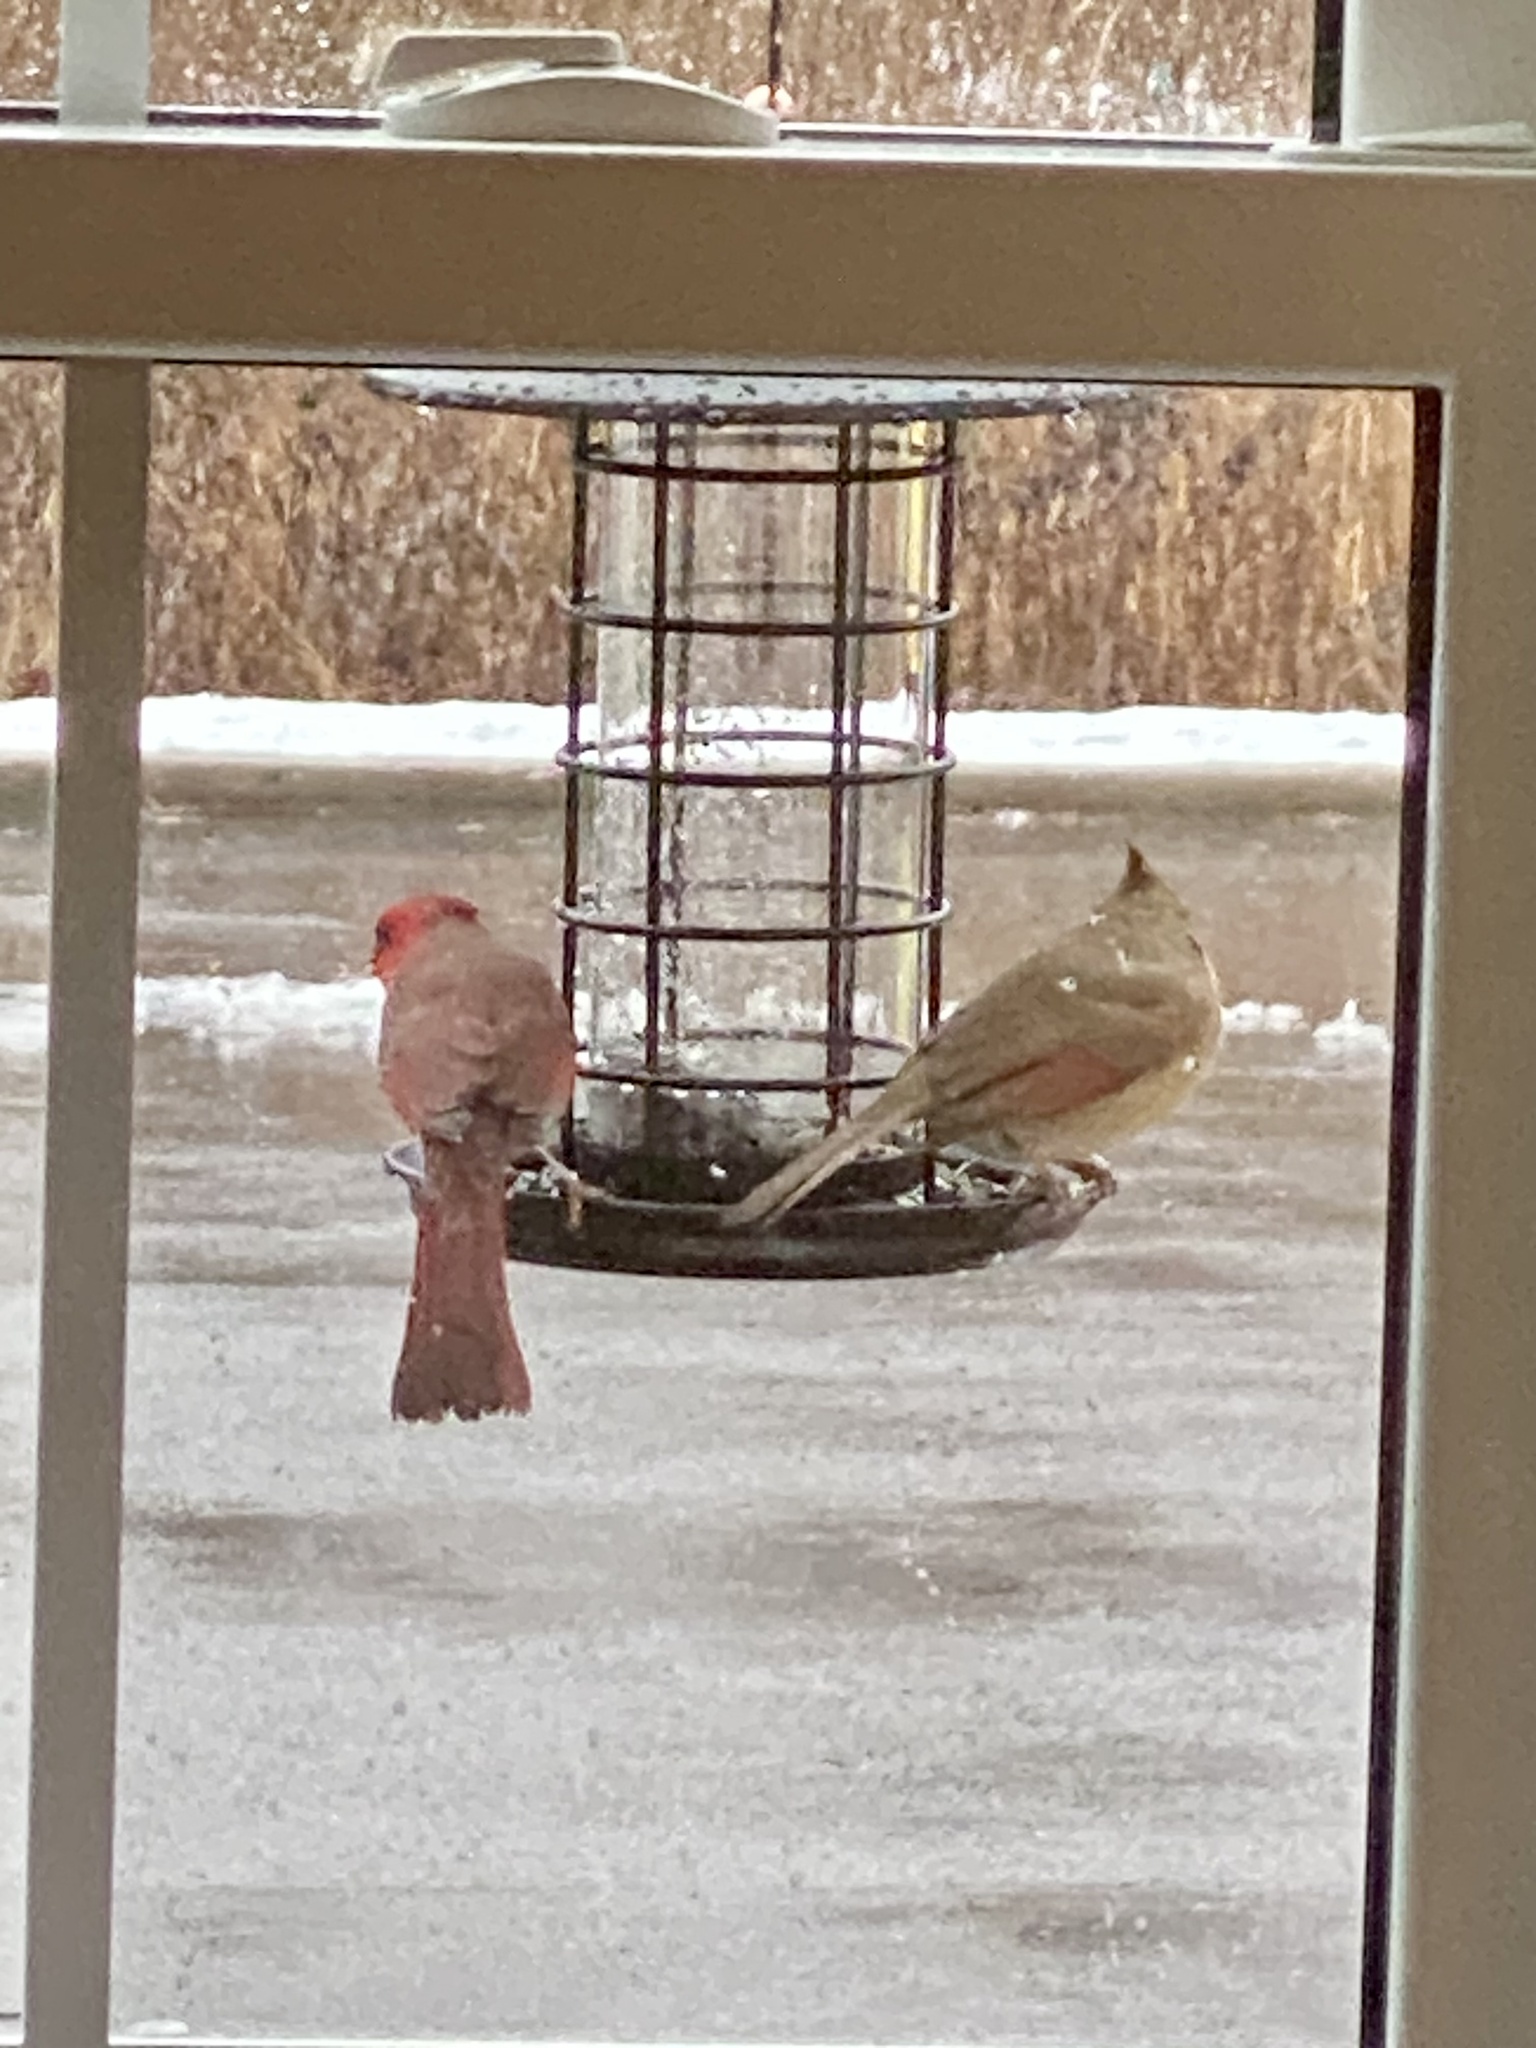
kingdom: Animalia
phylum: Chordata
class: Aves
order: Passeriformes
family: Cardinalidae
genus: Cardinalis
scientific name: Cardinalis cardinalis
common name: Northern cardinal
